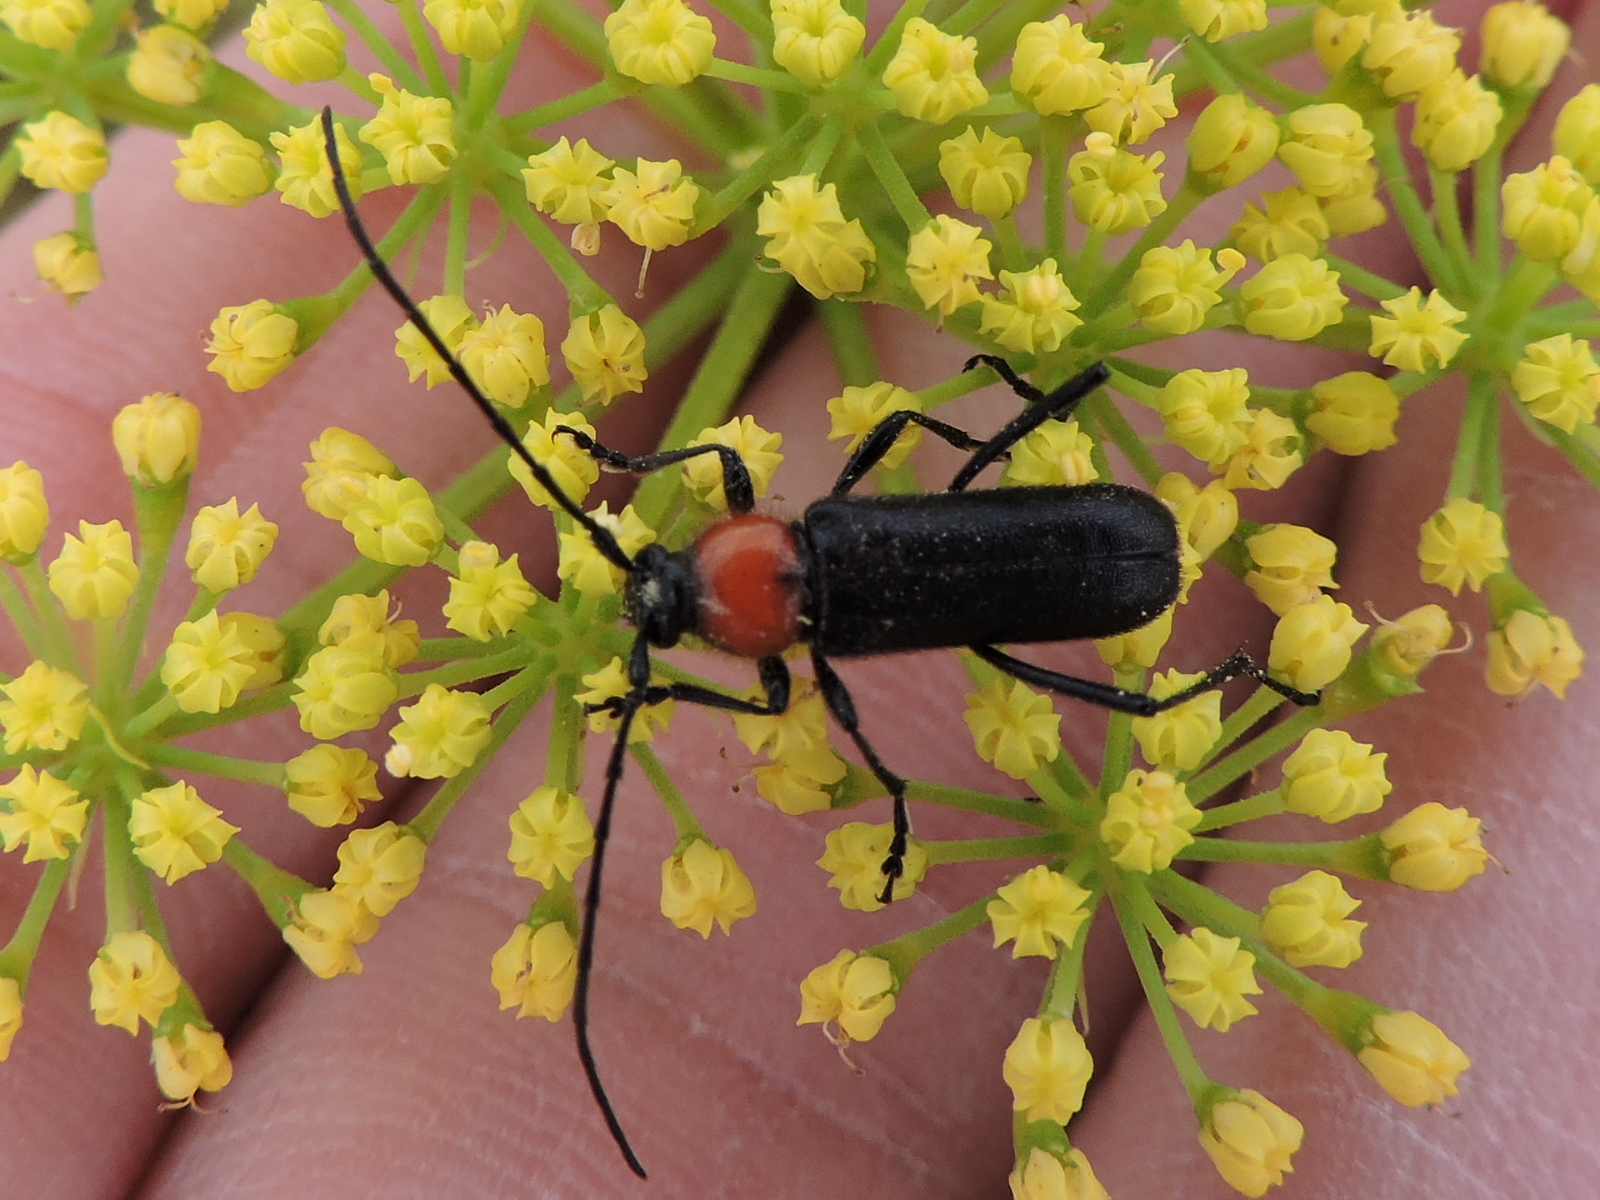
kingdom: Animalia
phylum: Arthropoda
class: Insecta
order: Coleoptera
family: Cerambycidae
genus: Batyle
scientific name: Batyle ignicollis
